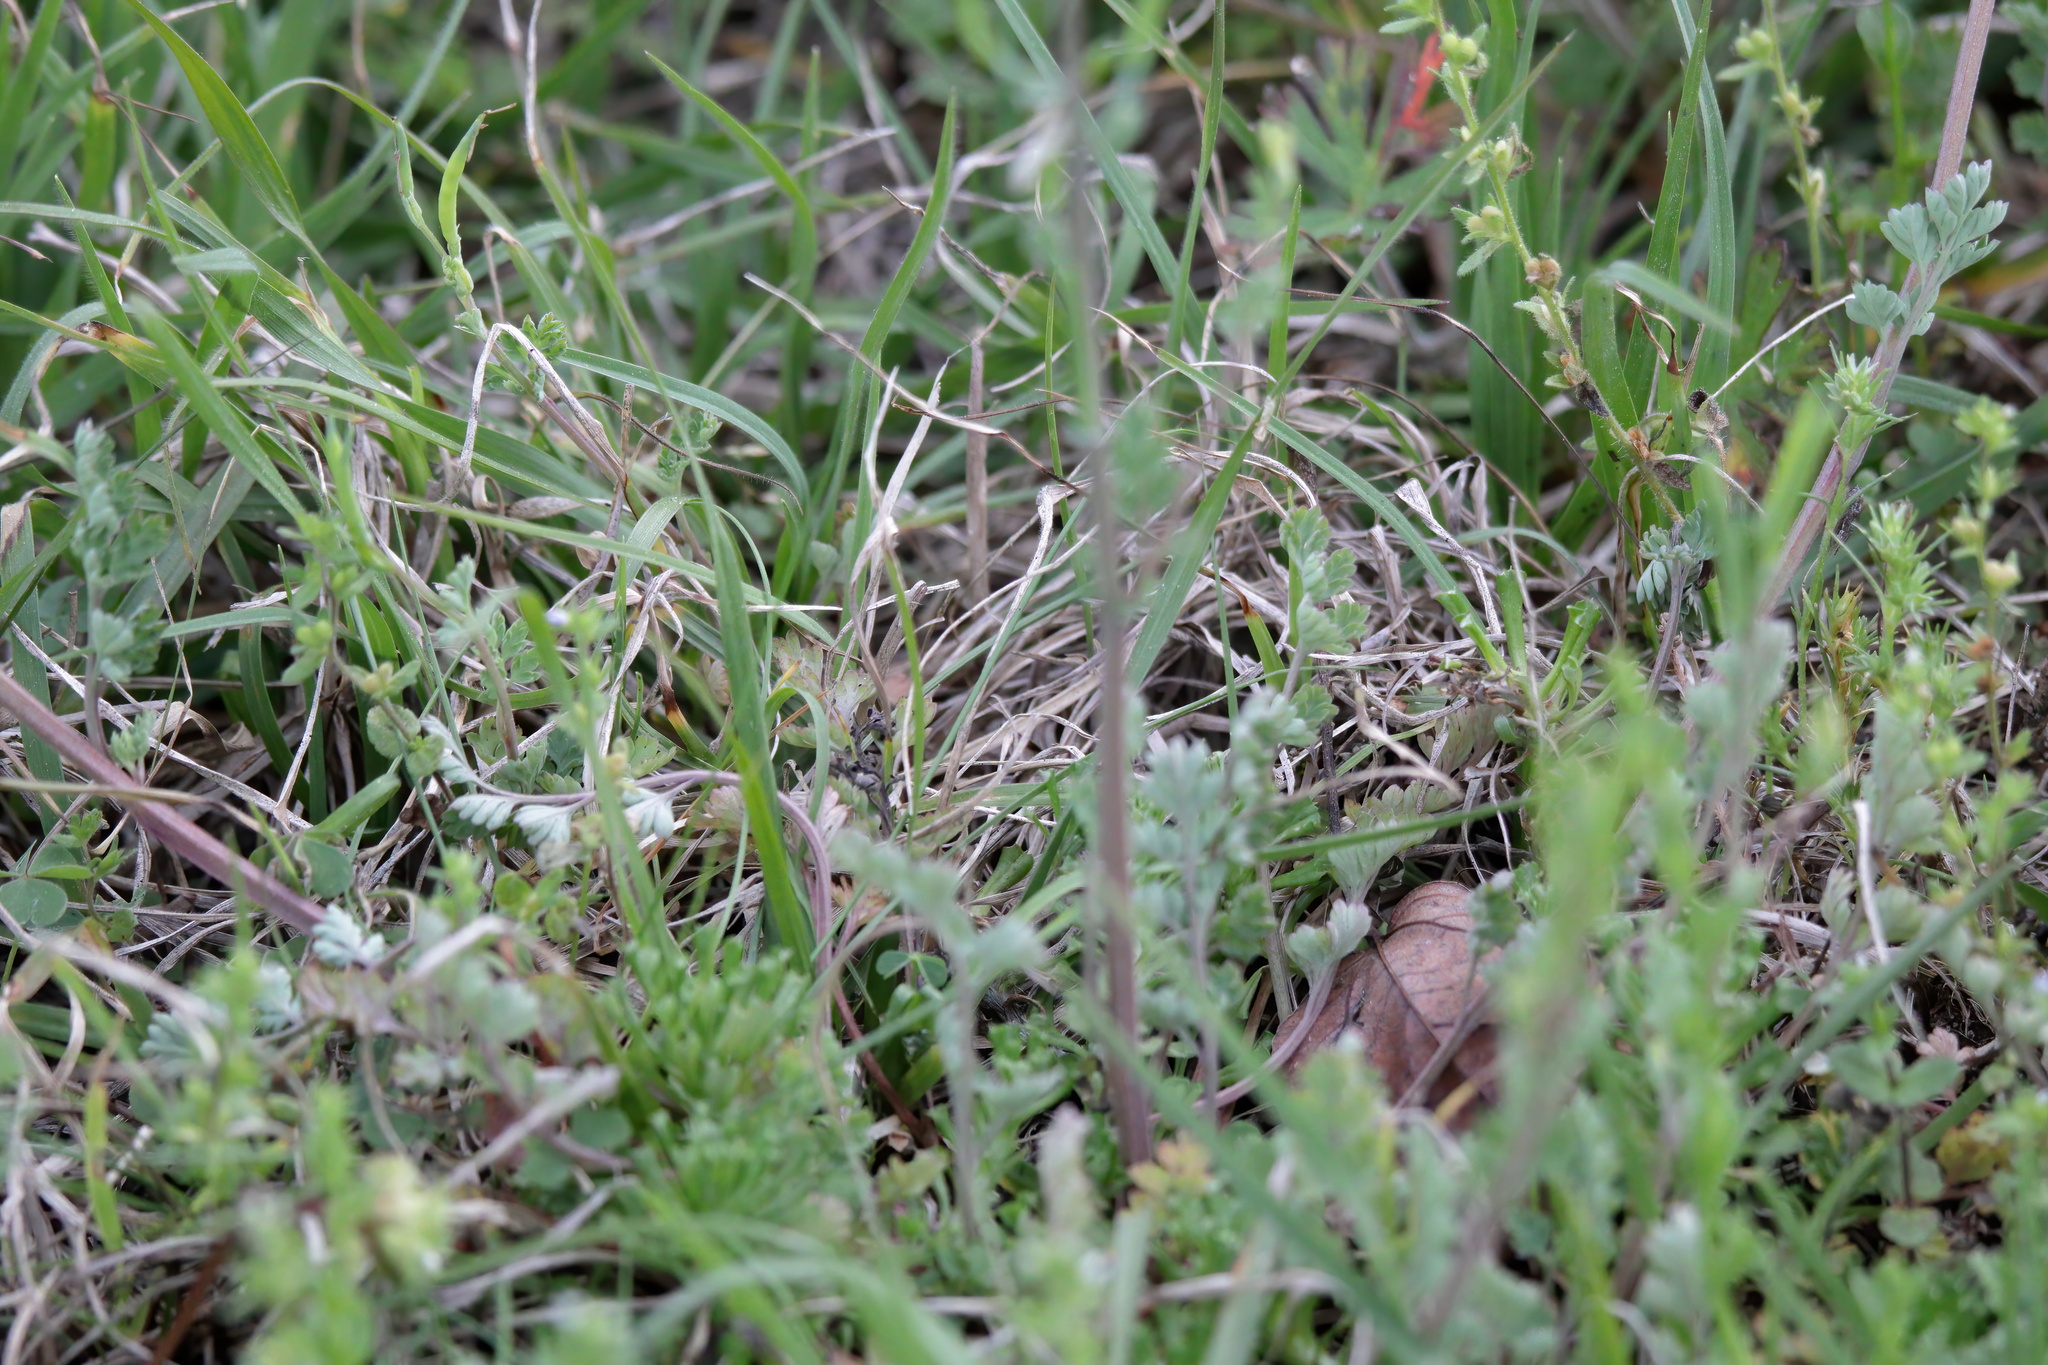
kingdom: Plantae
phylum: Tracheophyta
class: Magnoliopsida
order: Ranunculales
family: Papaveraceae
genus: Corydalis
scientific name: Corydalis micrantha
